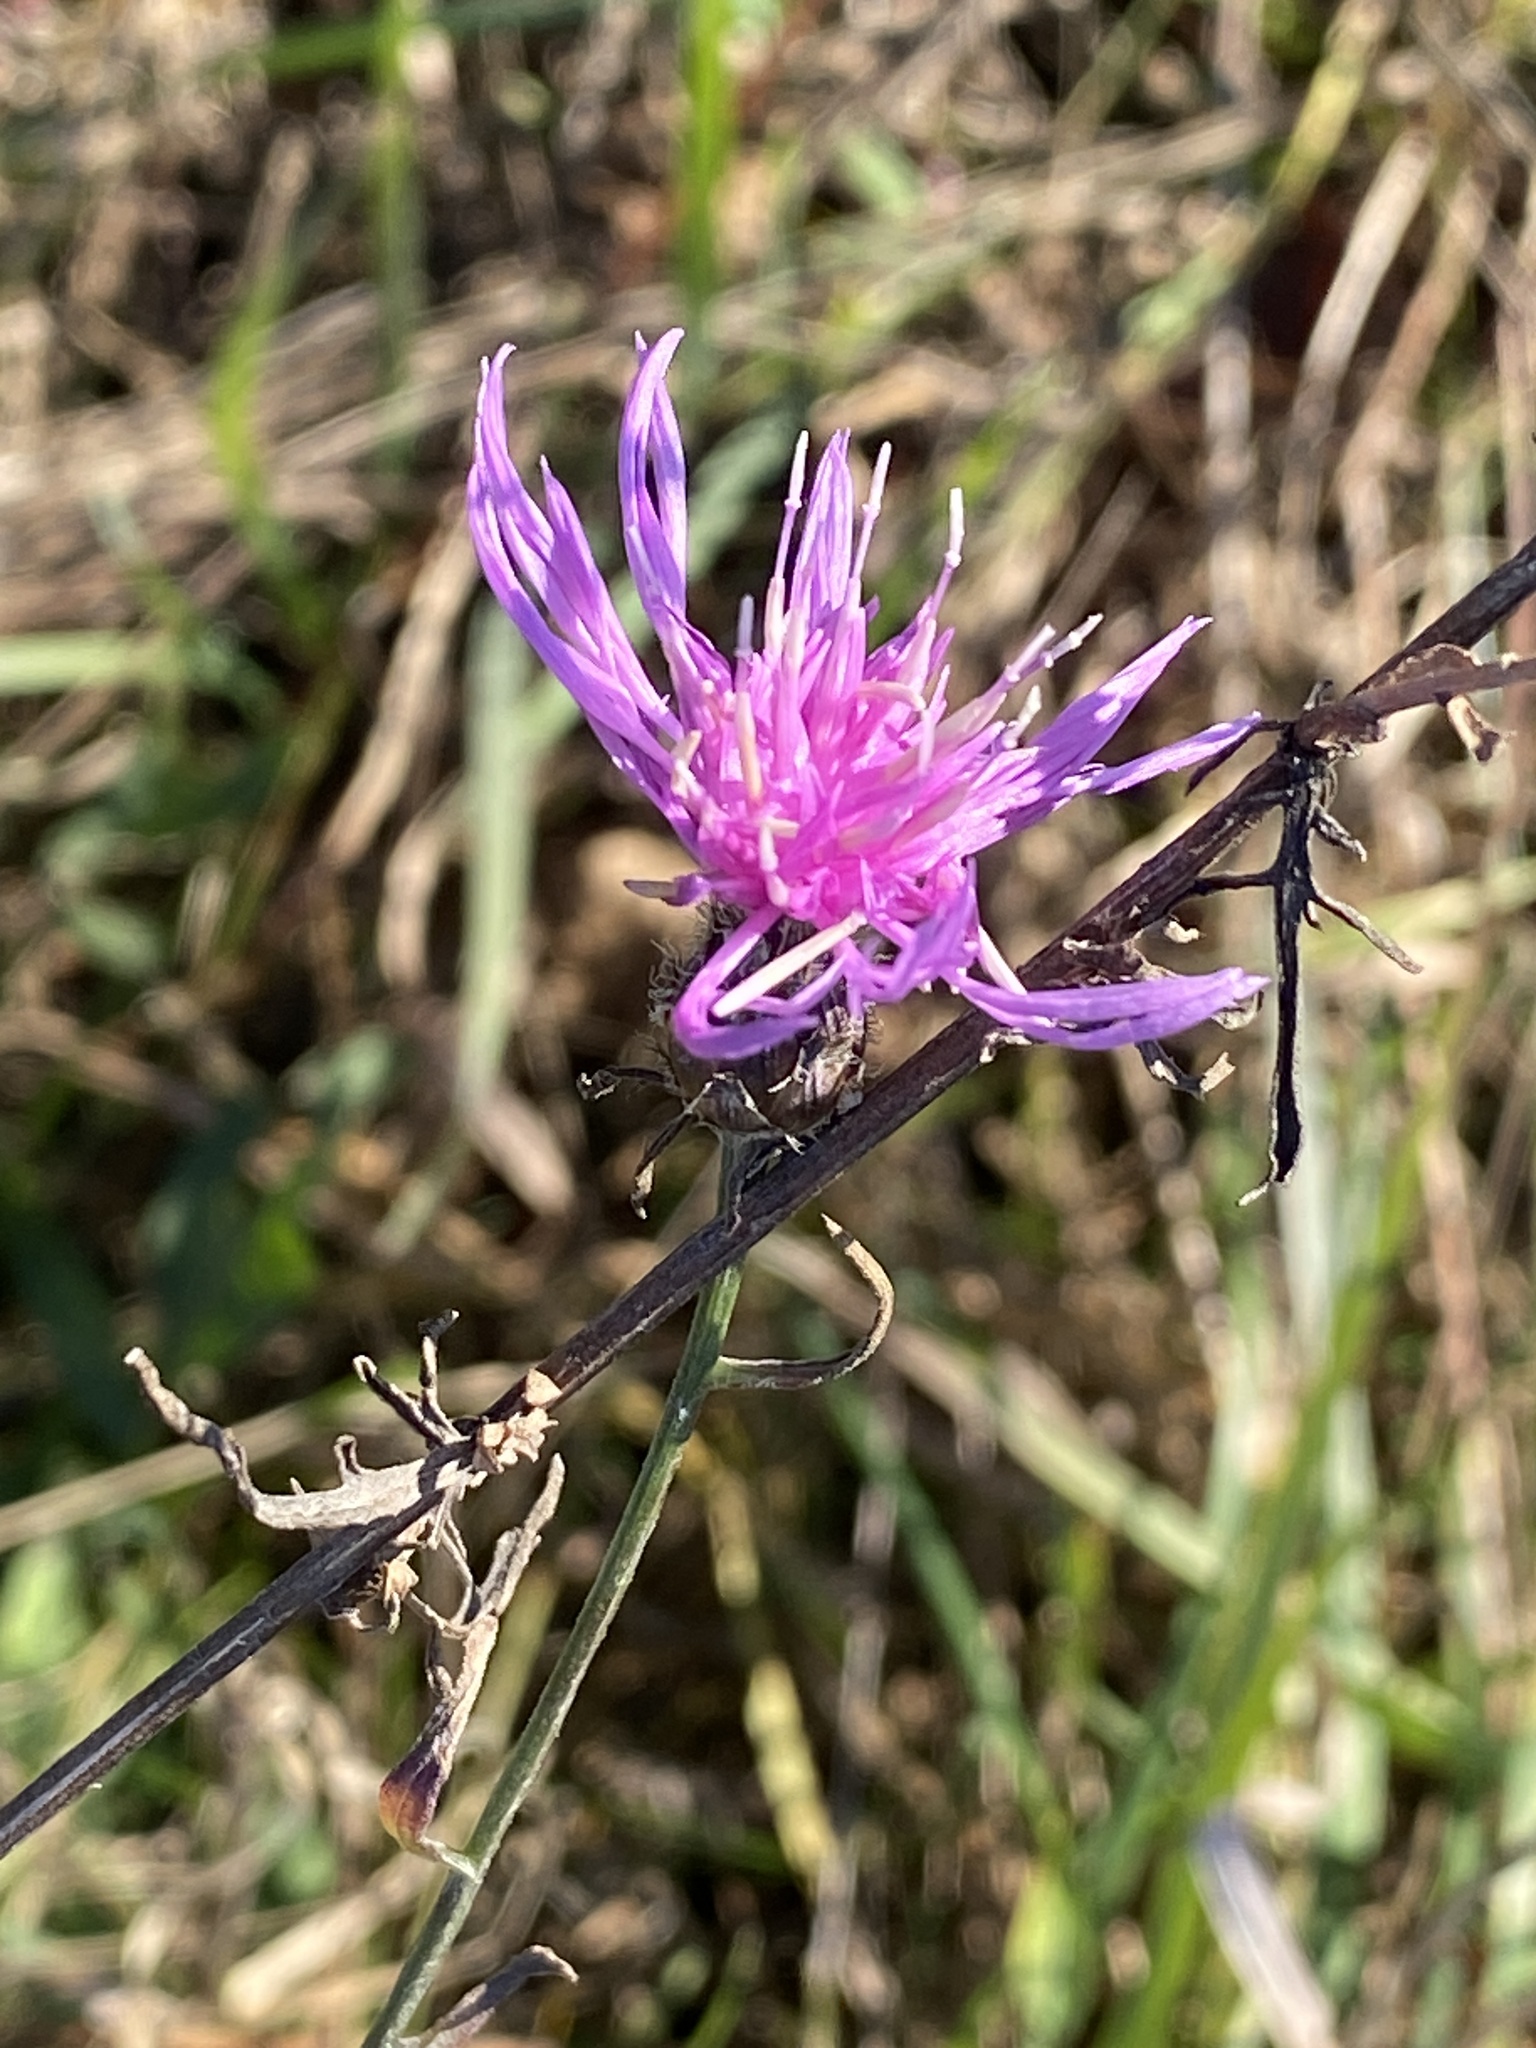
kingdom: Plantae
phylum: Tracheophyta
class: Magnoliopsida
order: Asterales
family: Asteraceae
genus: Centaurea
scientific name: Centaurea stoebe
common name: Spotted knapweed
